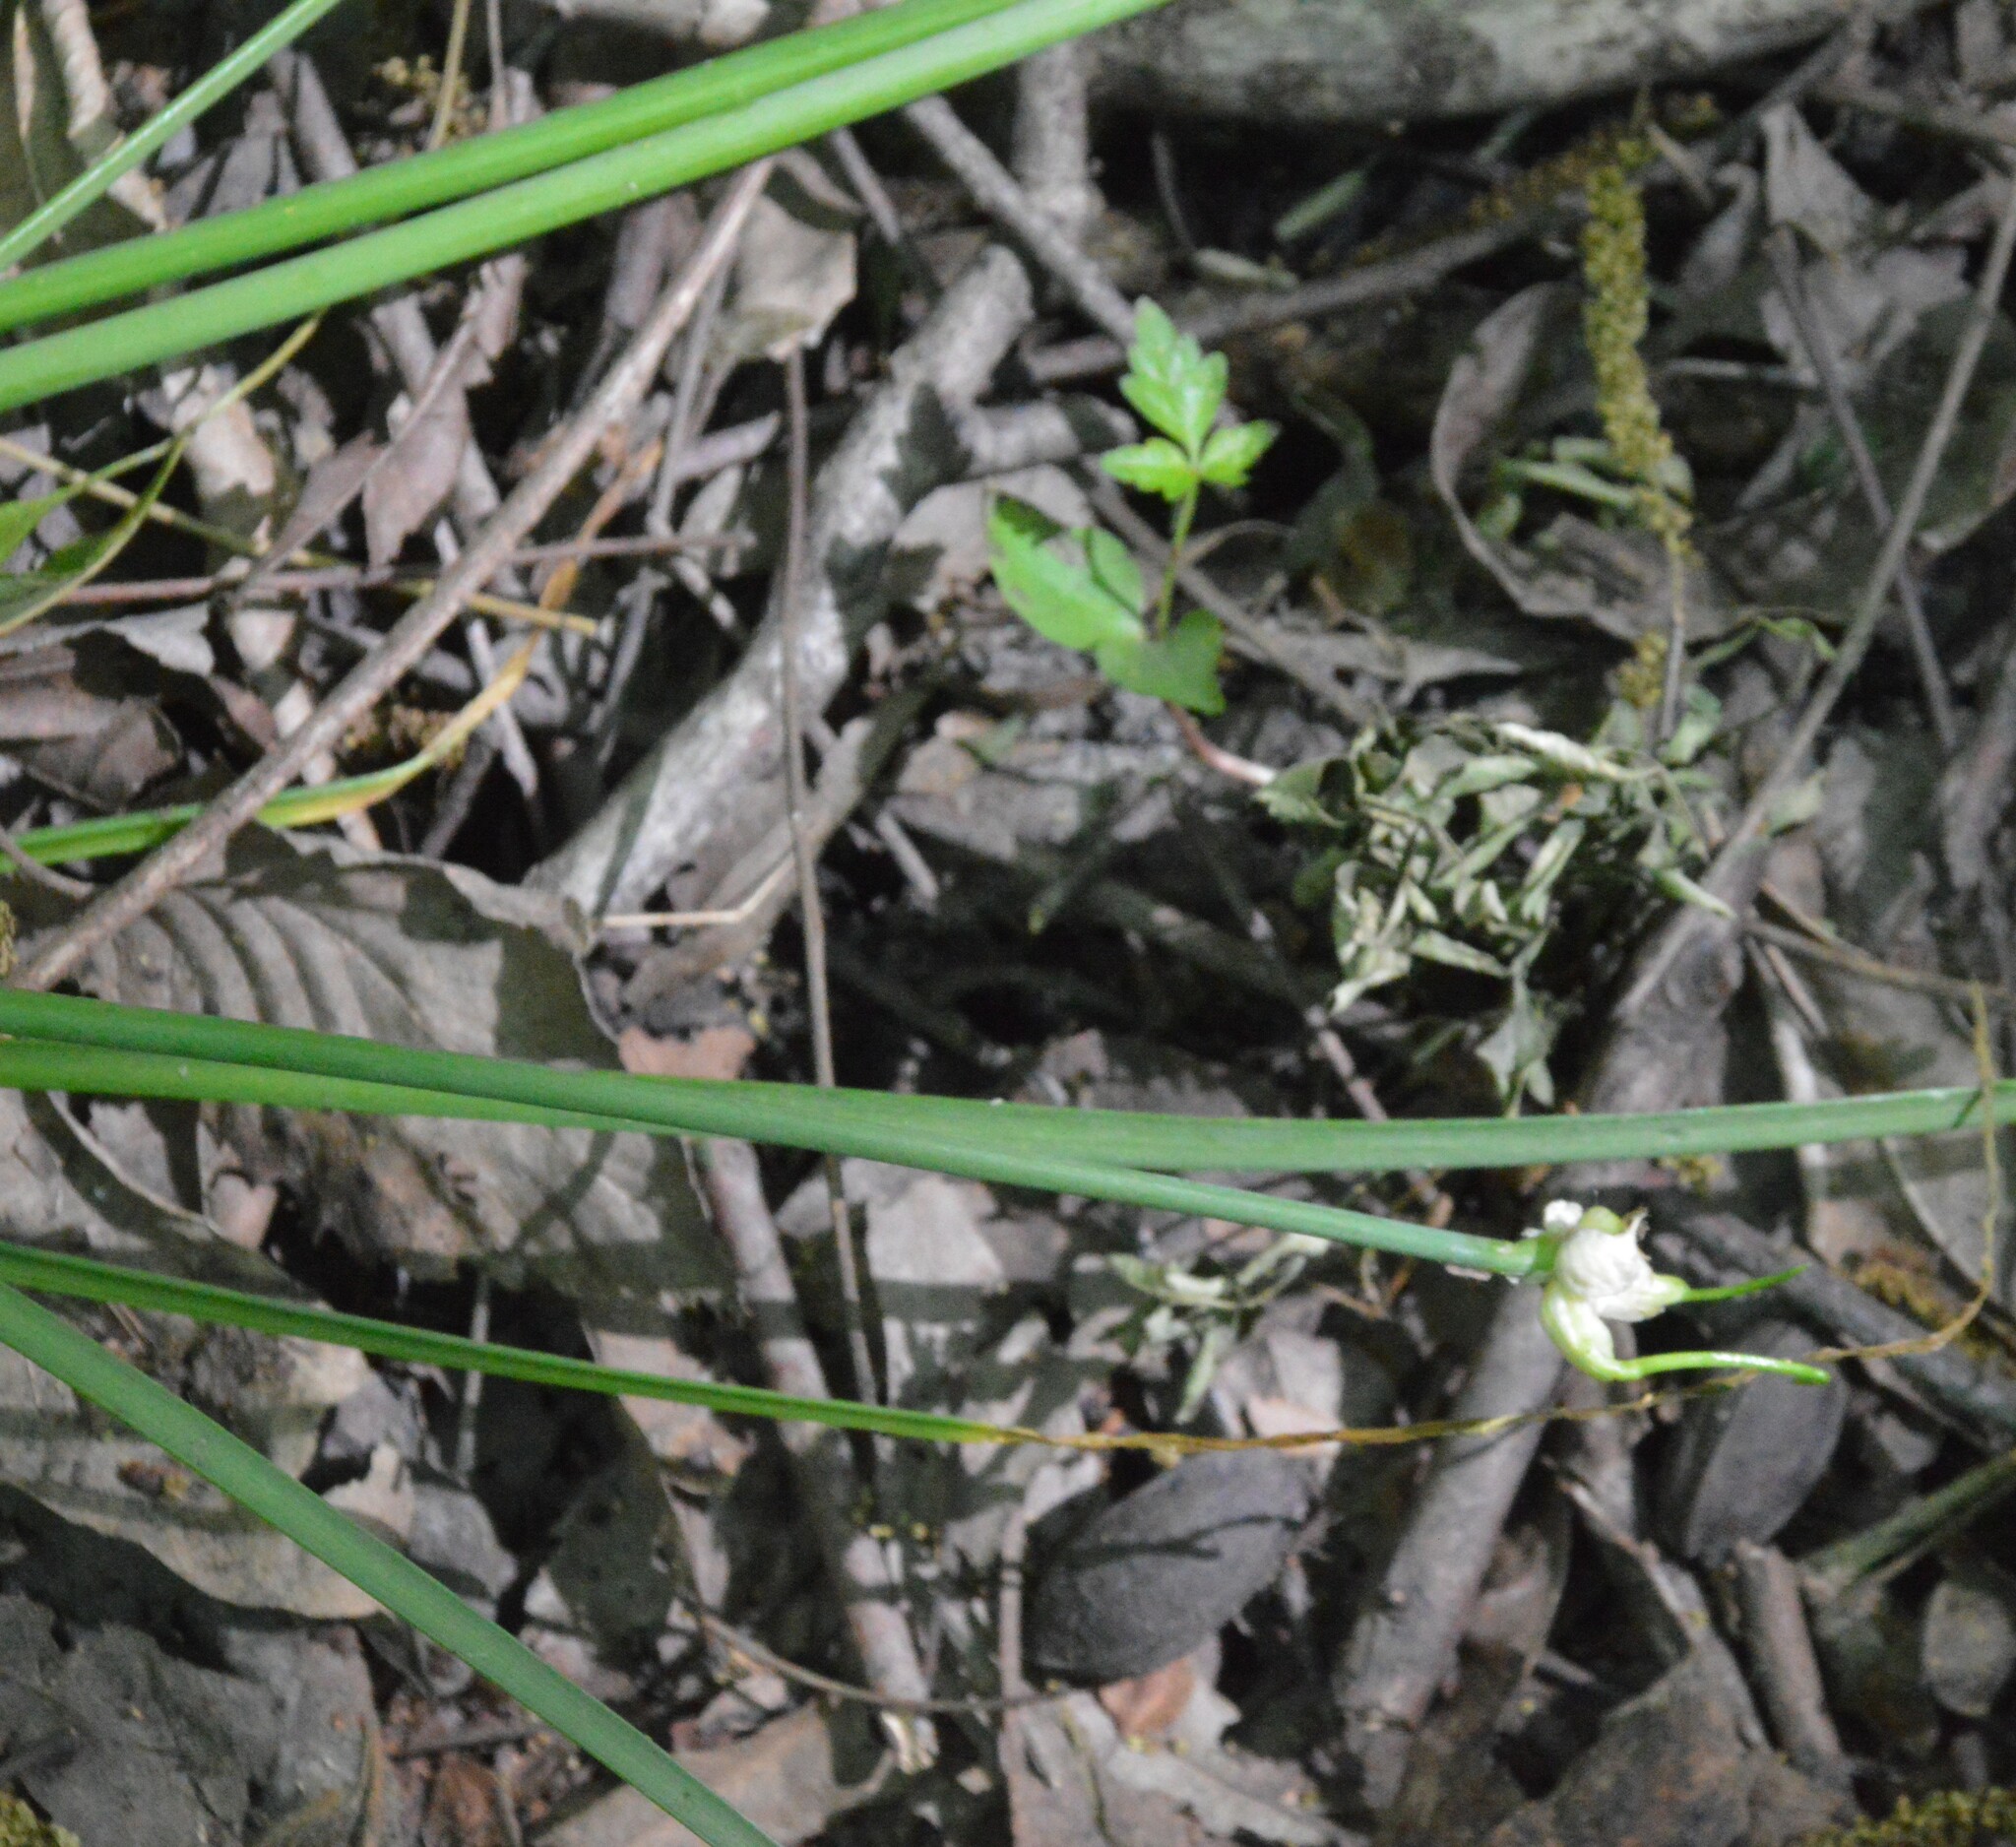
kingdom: Plantae
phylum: Tracheophyta
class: Liliopsida
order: Asparagales
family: Amaryllidaceae
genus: Allium
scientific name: Allium canadense
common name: Meadow garlic
